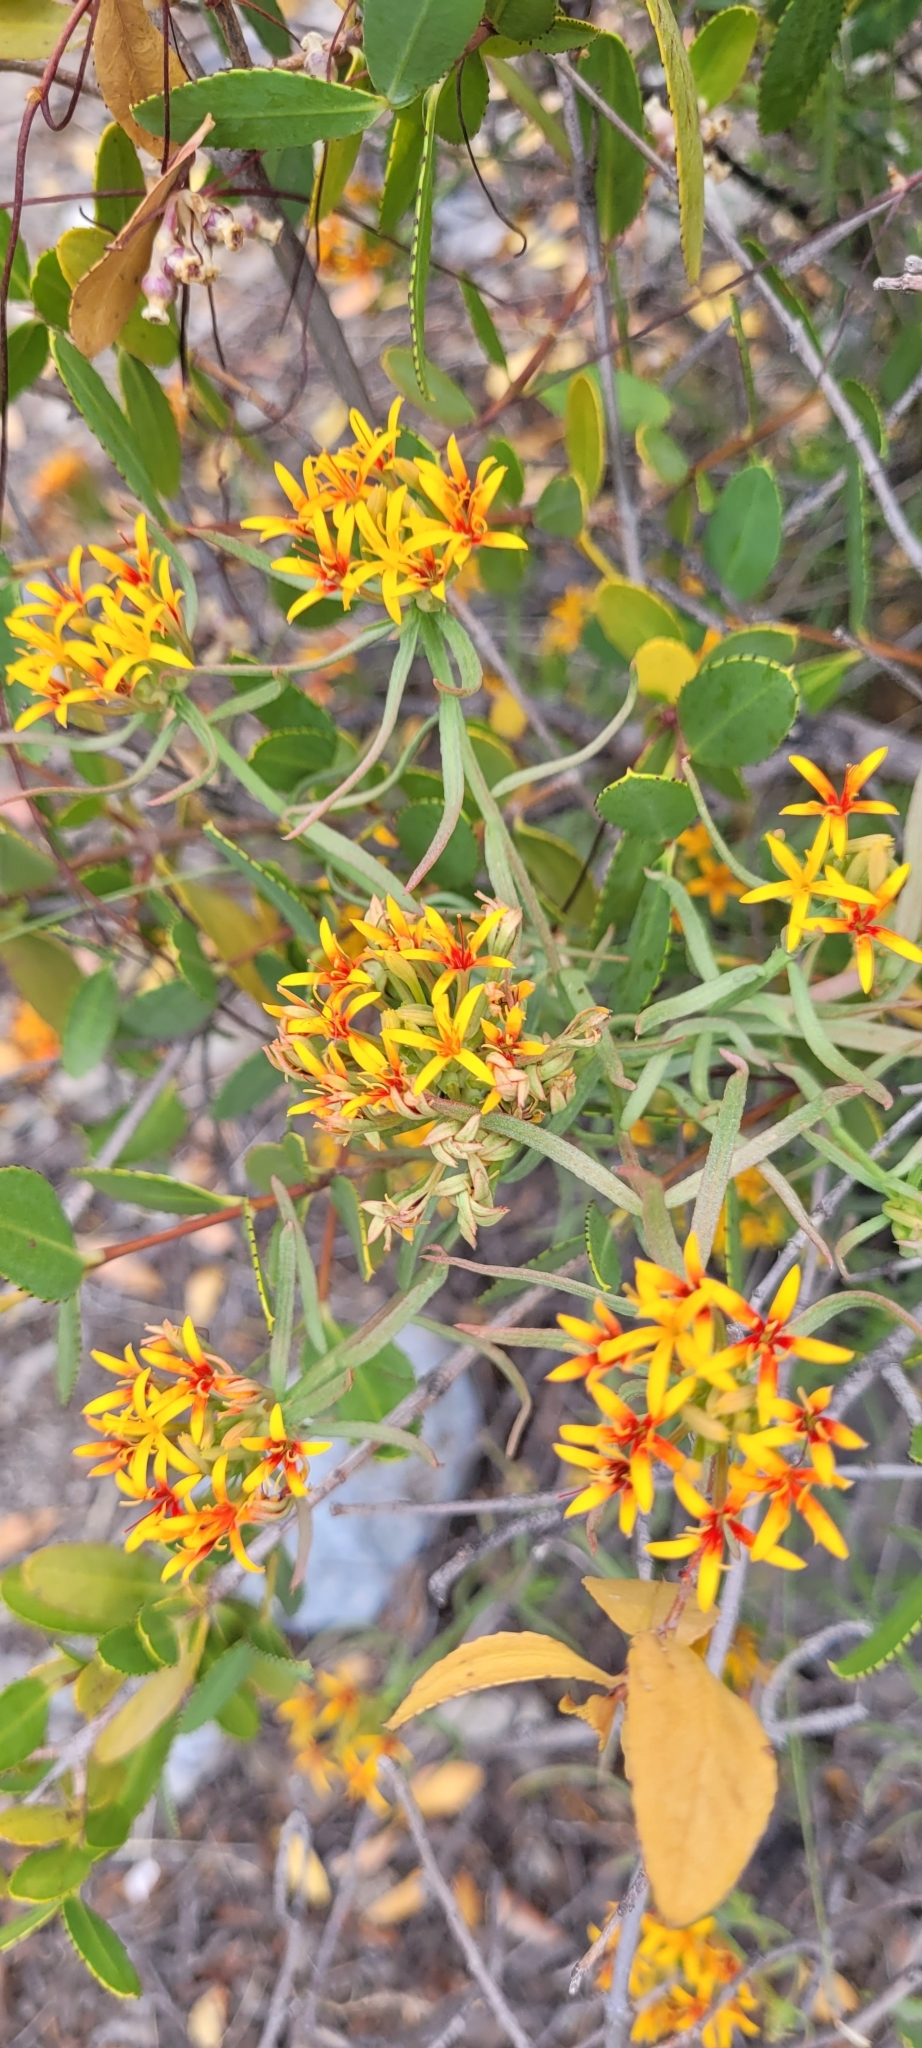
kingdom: Plantae
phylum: Tracheophyta
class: Magnoliopsida
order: Santalales
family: Schoepfiaceae
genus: Quinchamalium
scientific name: Quinchamalium chilense
